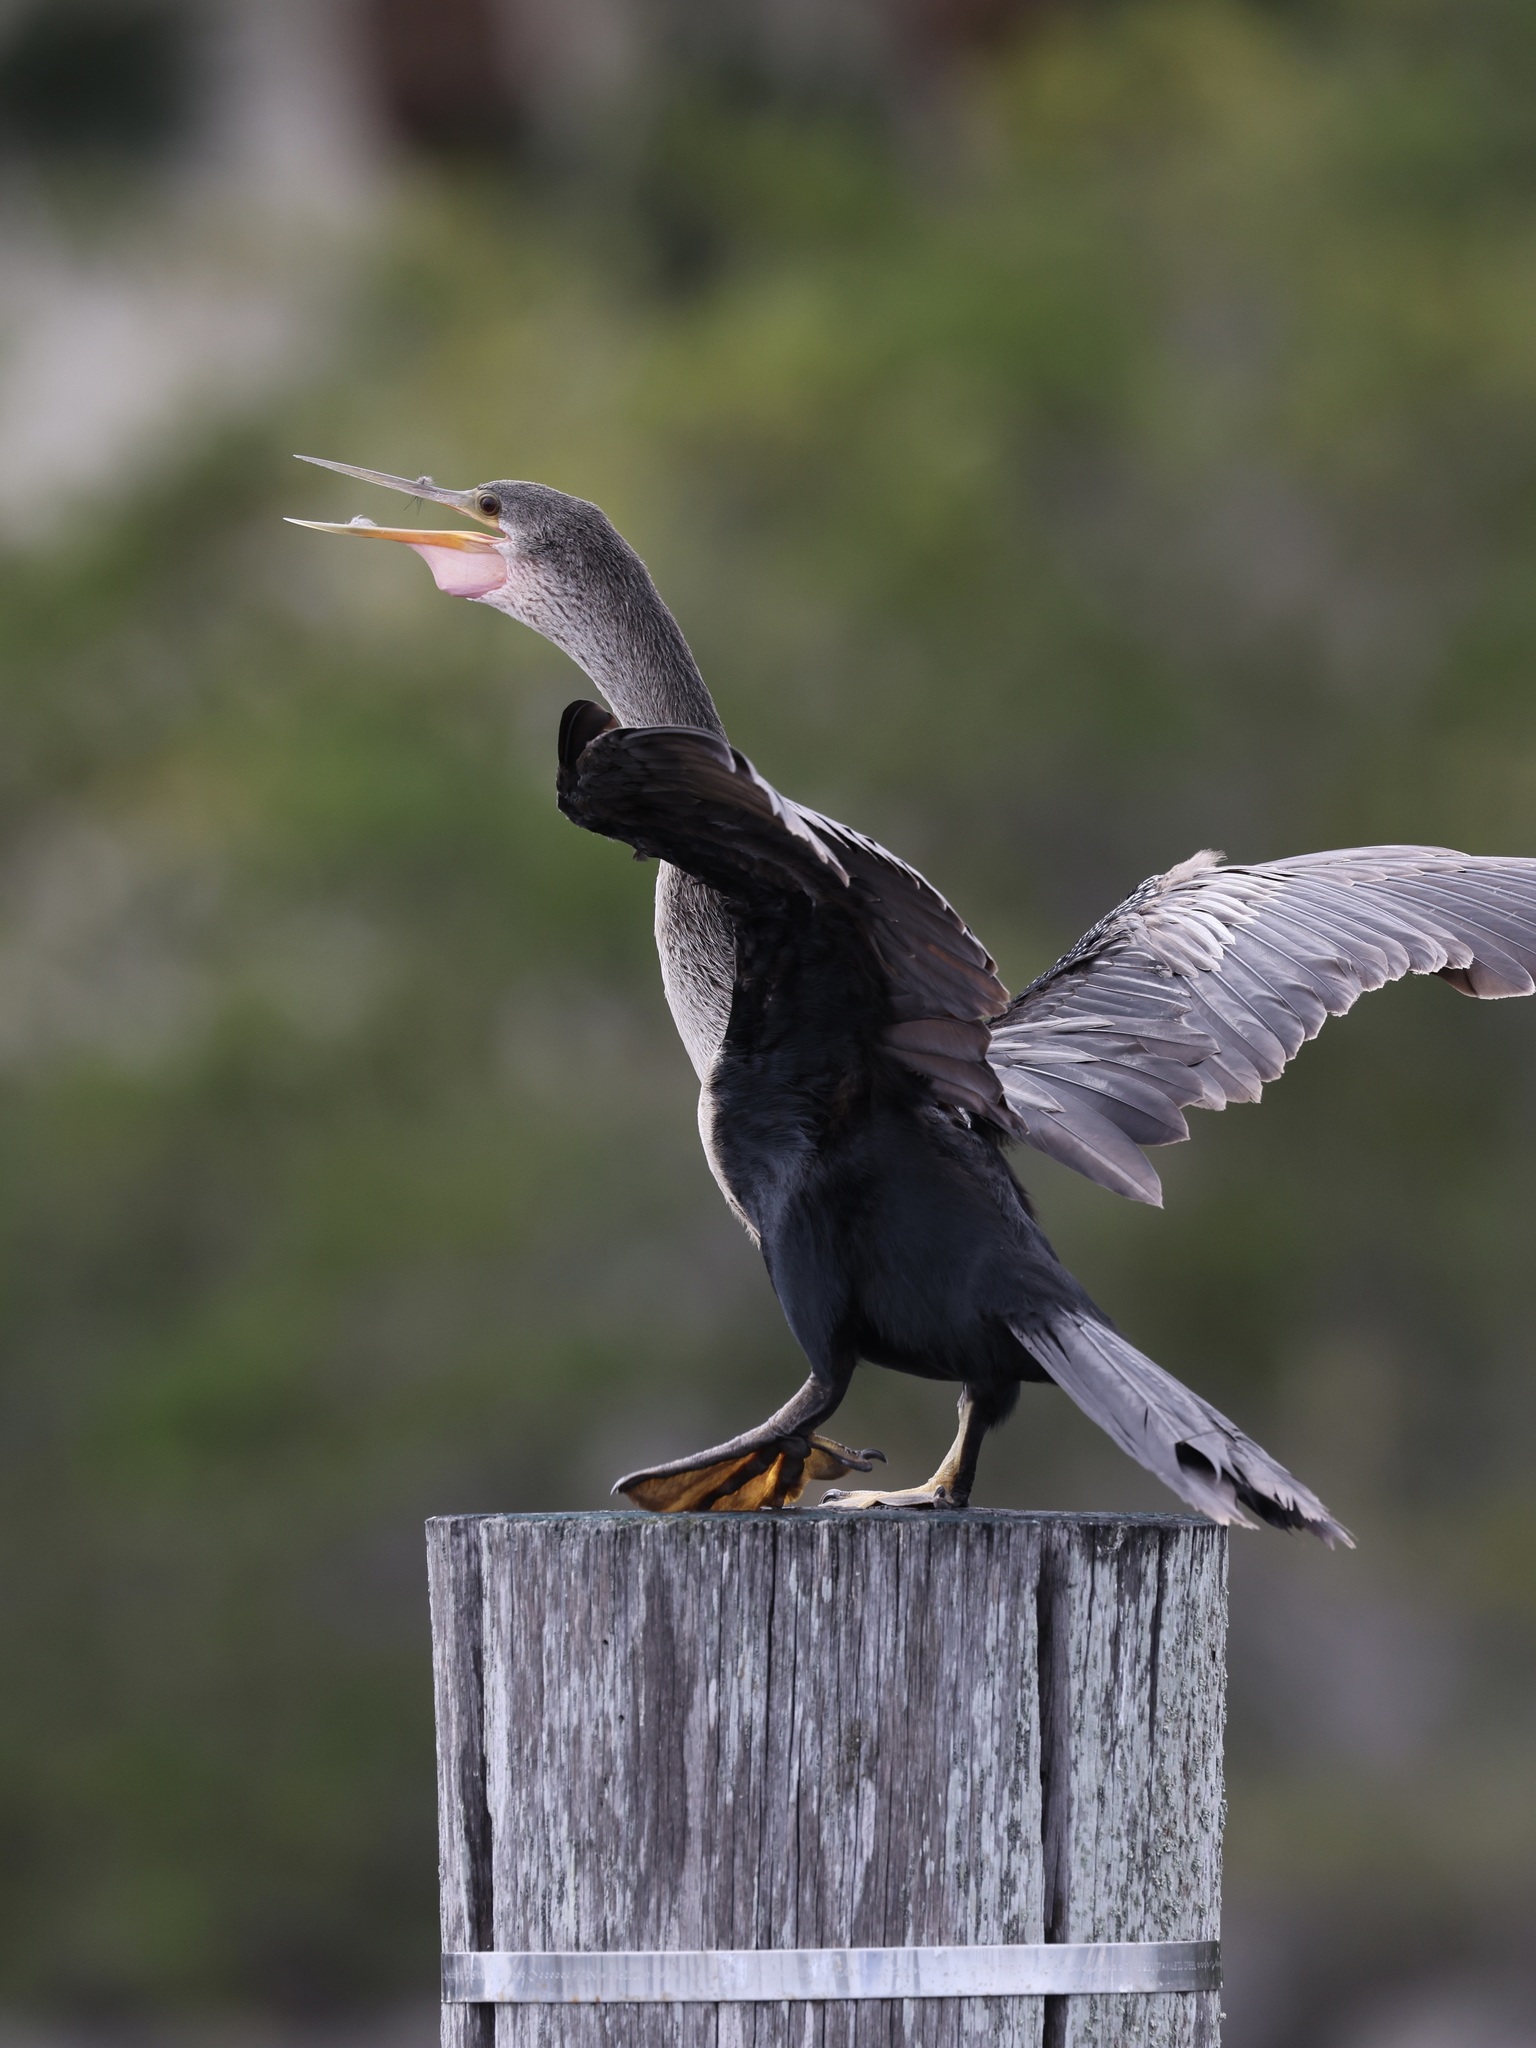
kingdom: Animalia
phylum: Chordata
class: Aves
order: Suliformes
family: Anhingidae
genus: Anhinga
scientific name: Anhinga anhinga
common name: Anhinga
